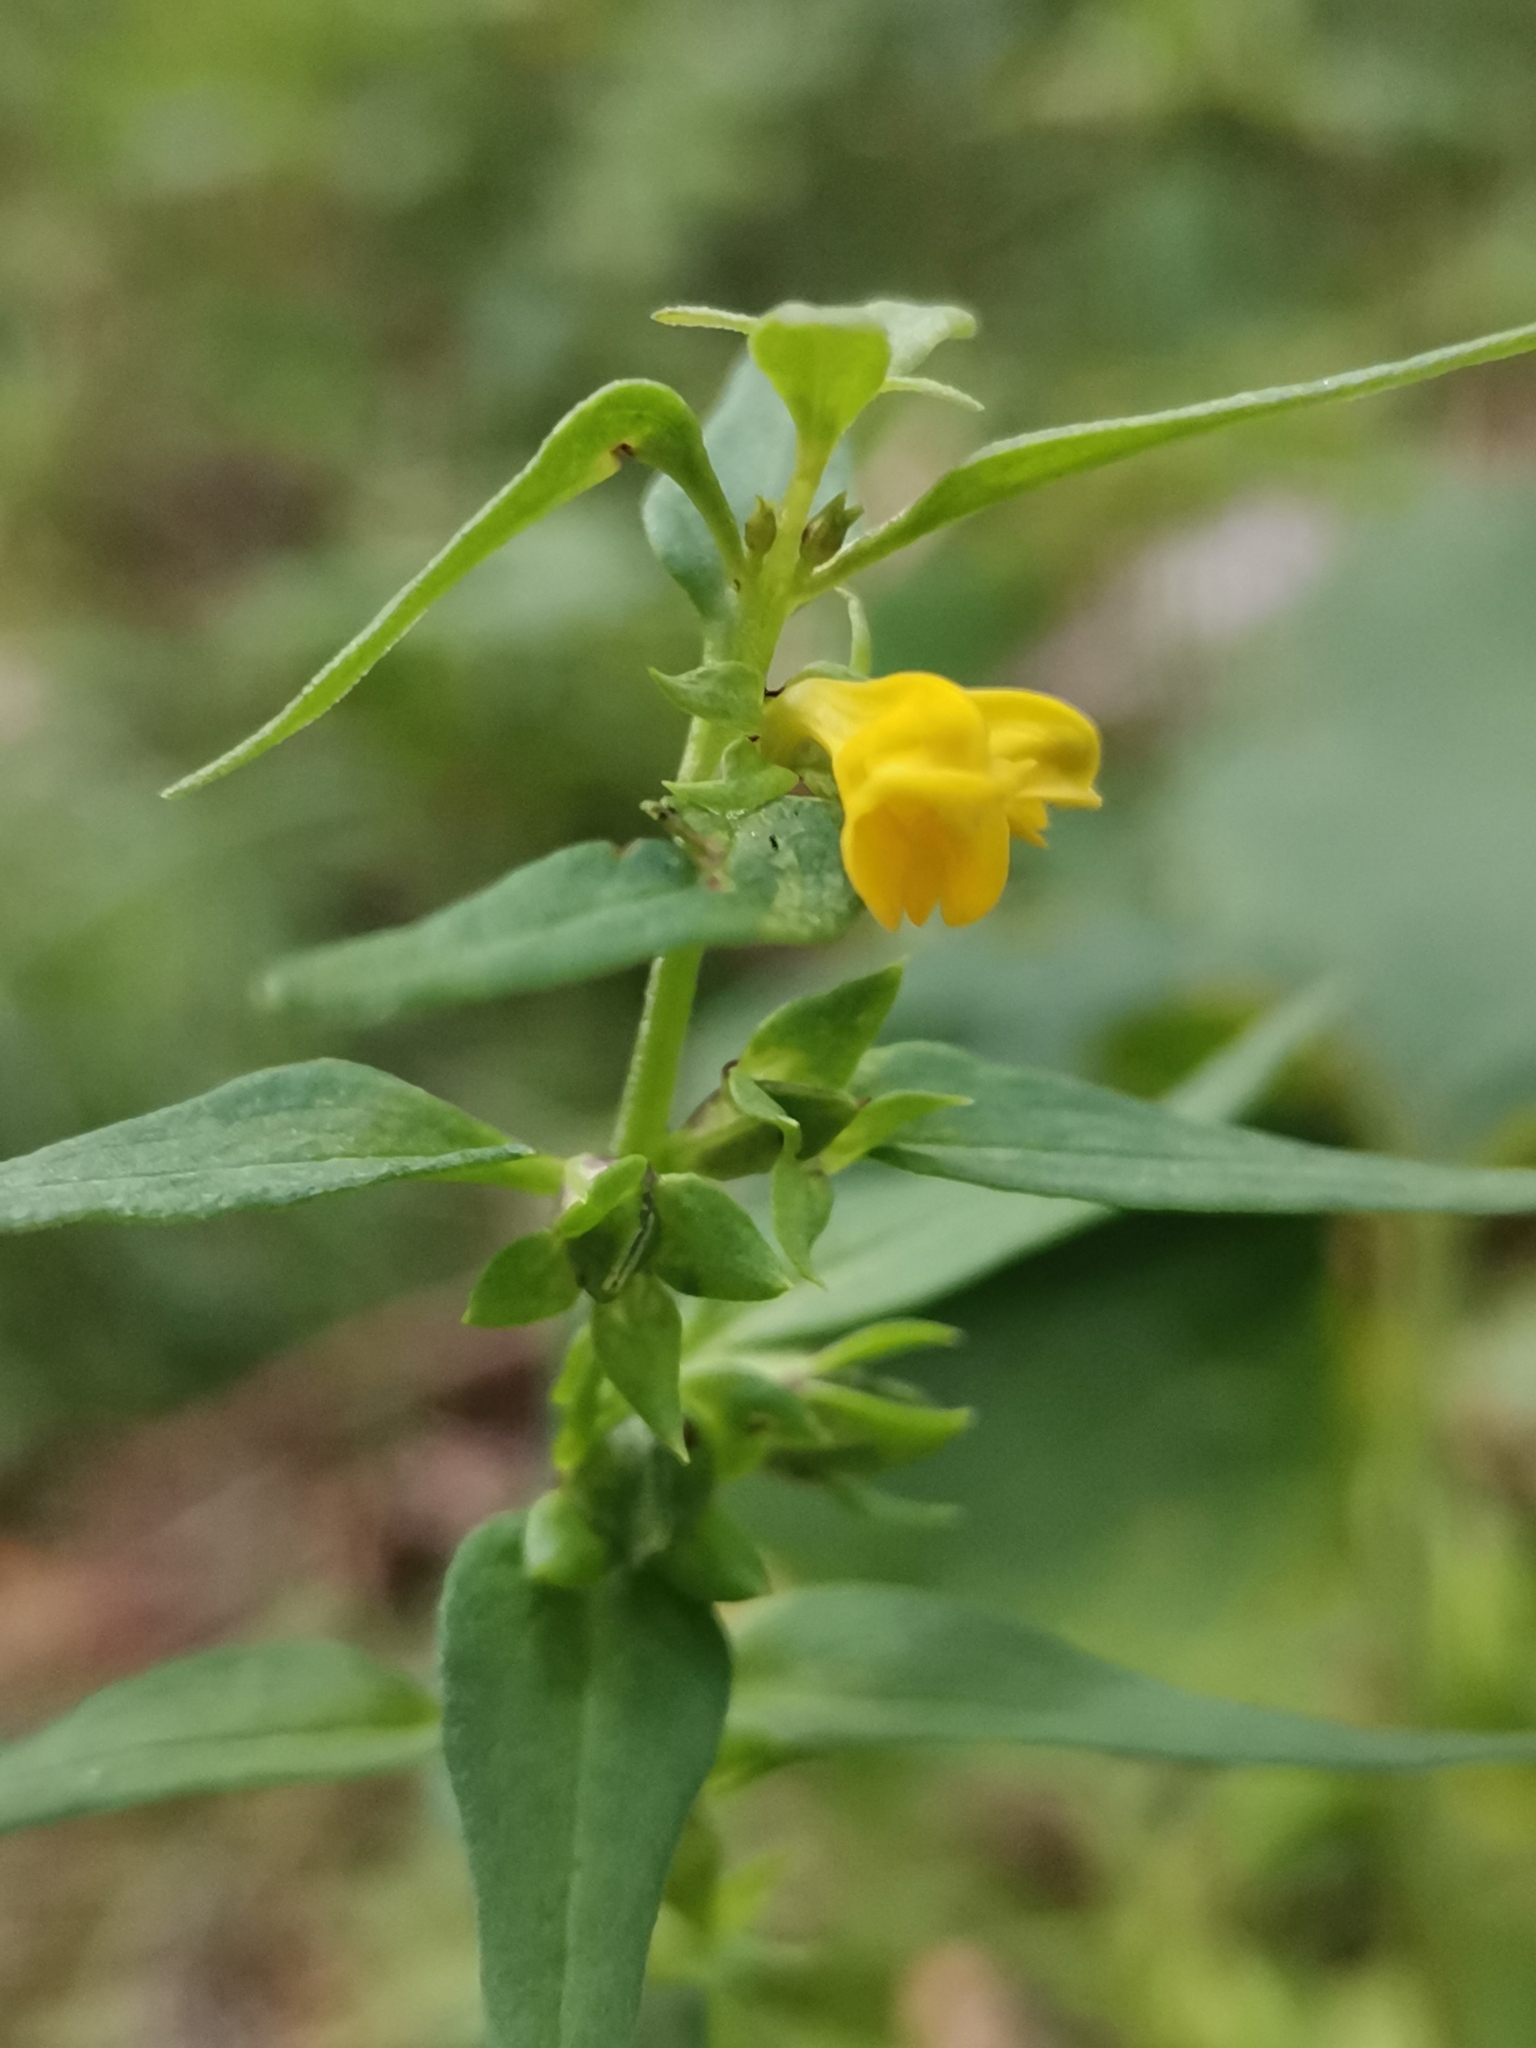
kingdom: Plantae
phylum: Tracheophyta
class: Magnoliopsida
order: Lamiales
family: Orobanchaceae
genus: Melampyrum
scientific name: Melampyrum sylvaticum
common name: Small cow-wheat
